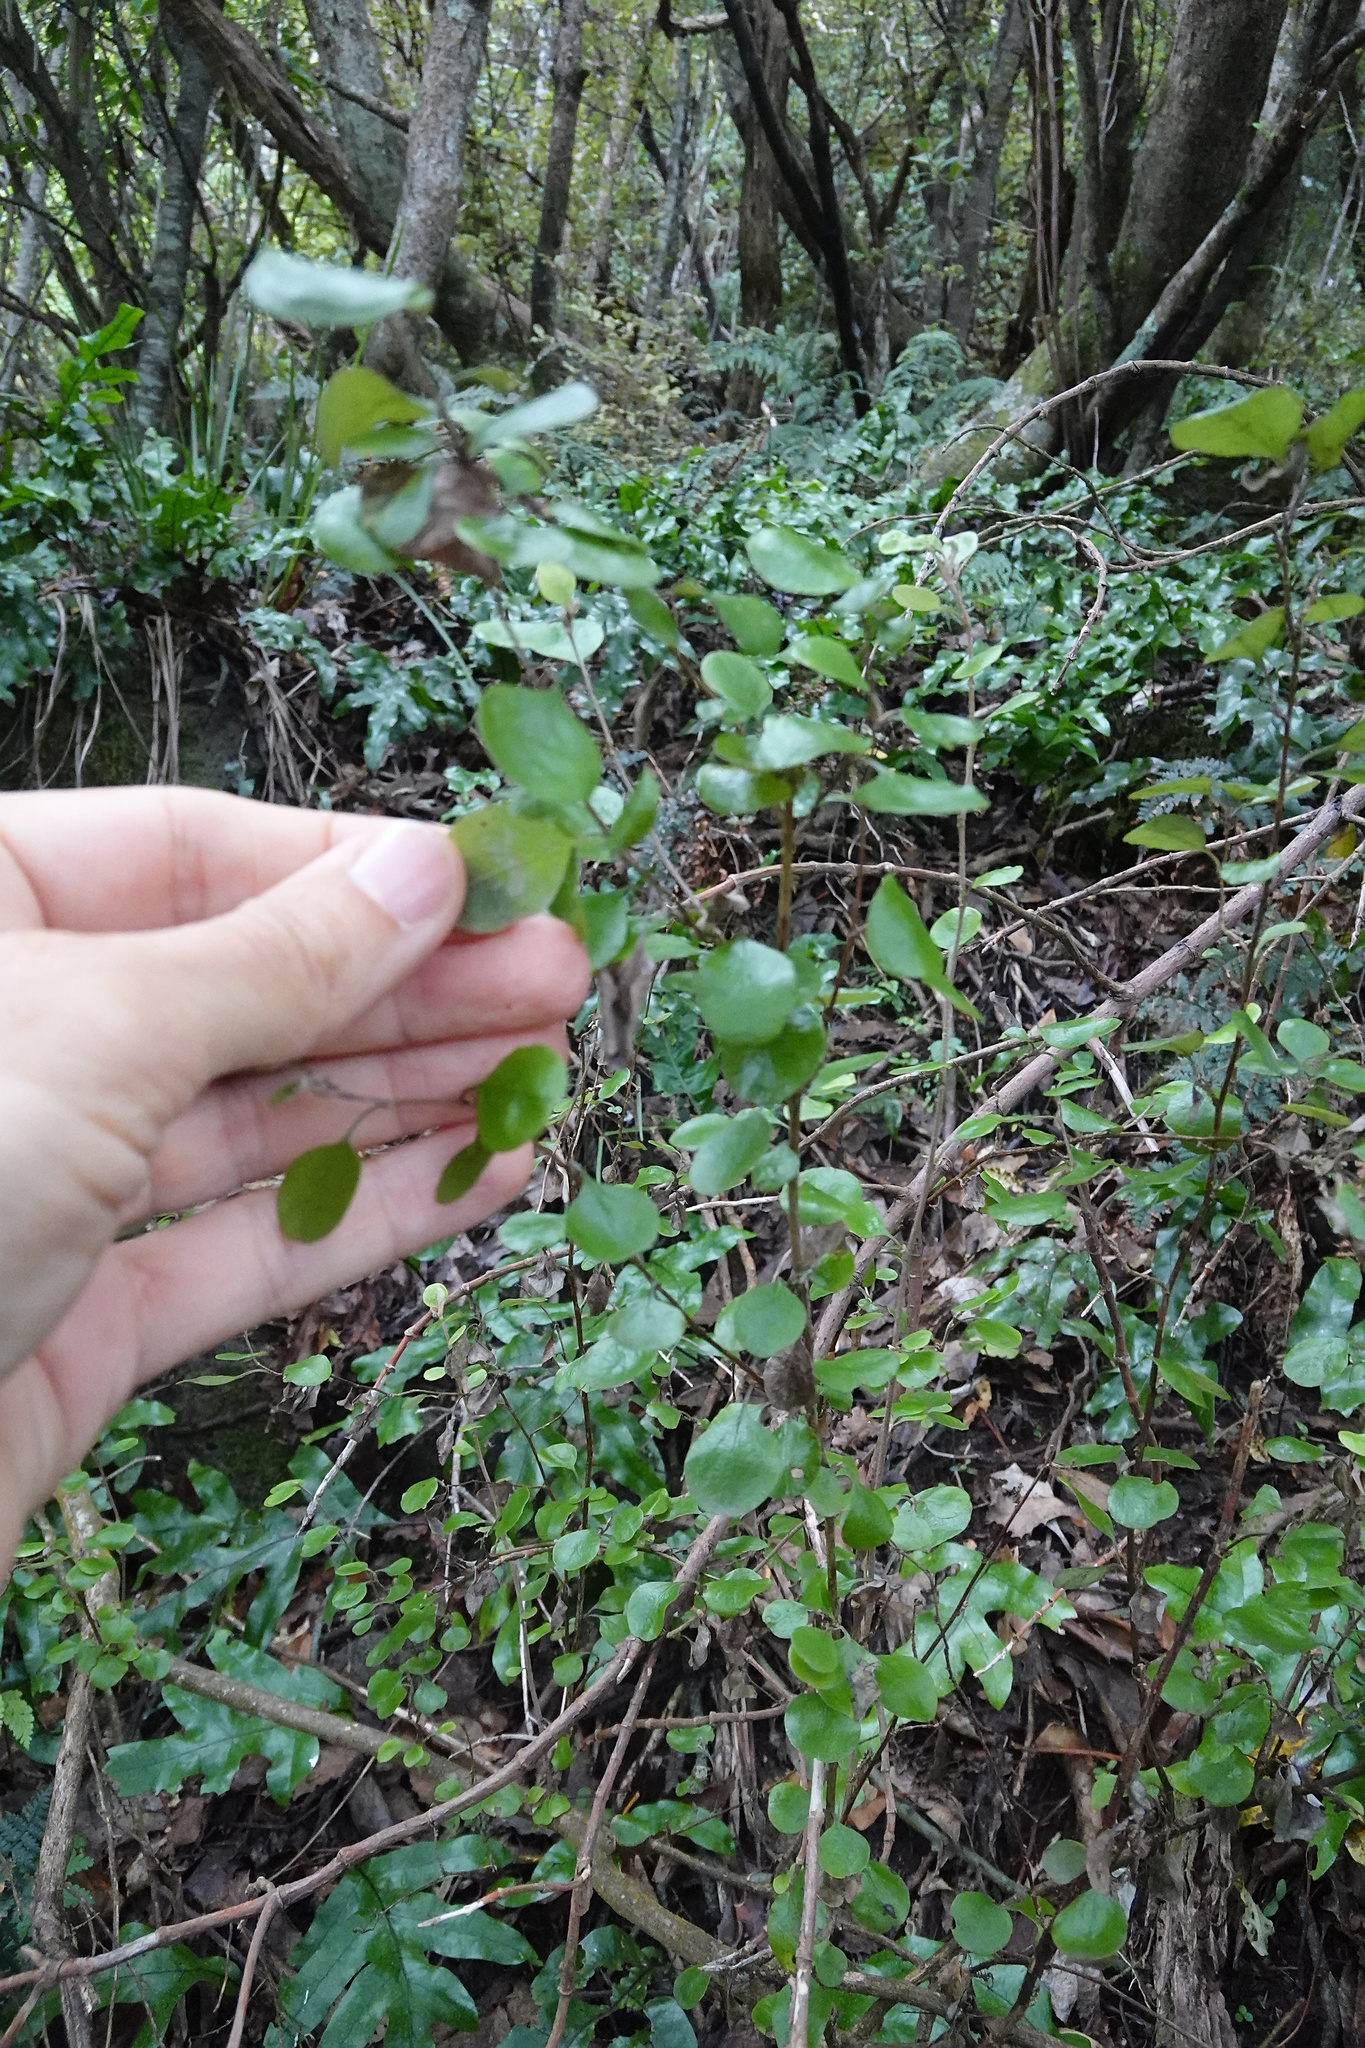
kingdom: Plantae
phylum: Tracheophyta
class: Magnoliopsida
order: Asterales
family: Asteraceae
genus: Ozothamnus
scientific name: Ozothamnus glomeratus
